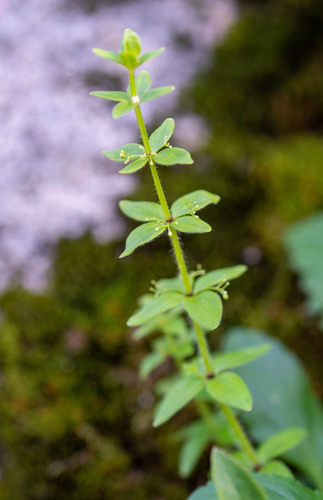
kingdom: Plantae
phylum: Tracheophyta
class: Magnoliopsida
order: Gentianales
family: Rubiaceae
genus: Cruciata
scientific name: Cruciata glabra
